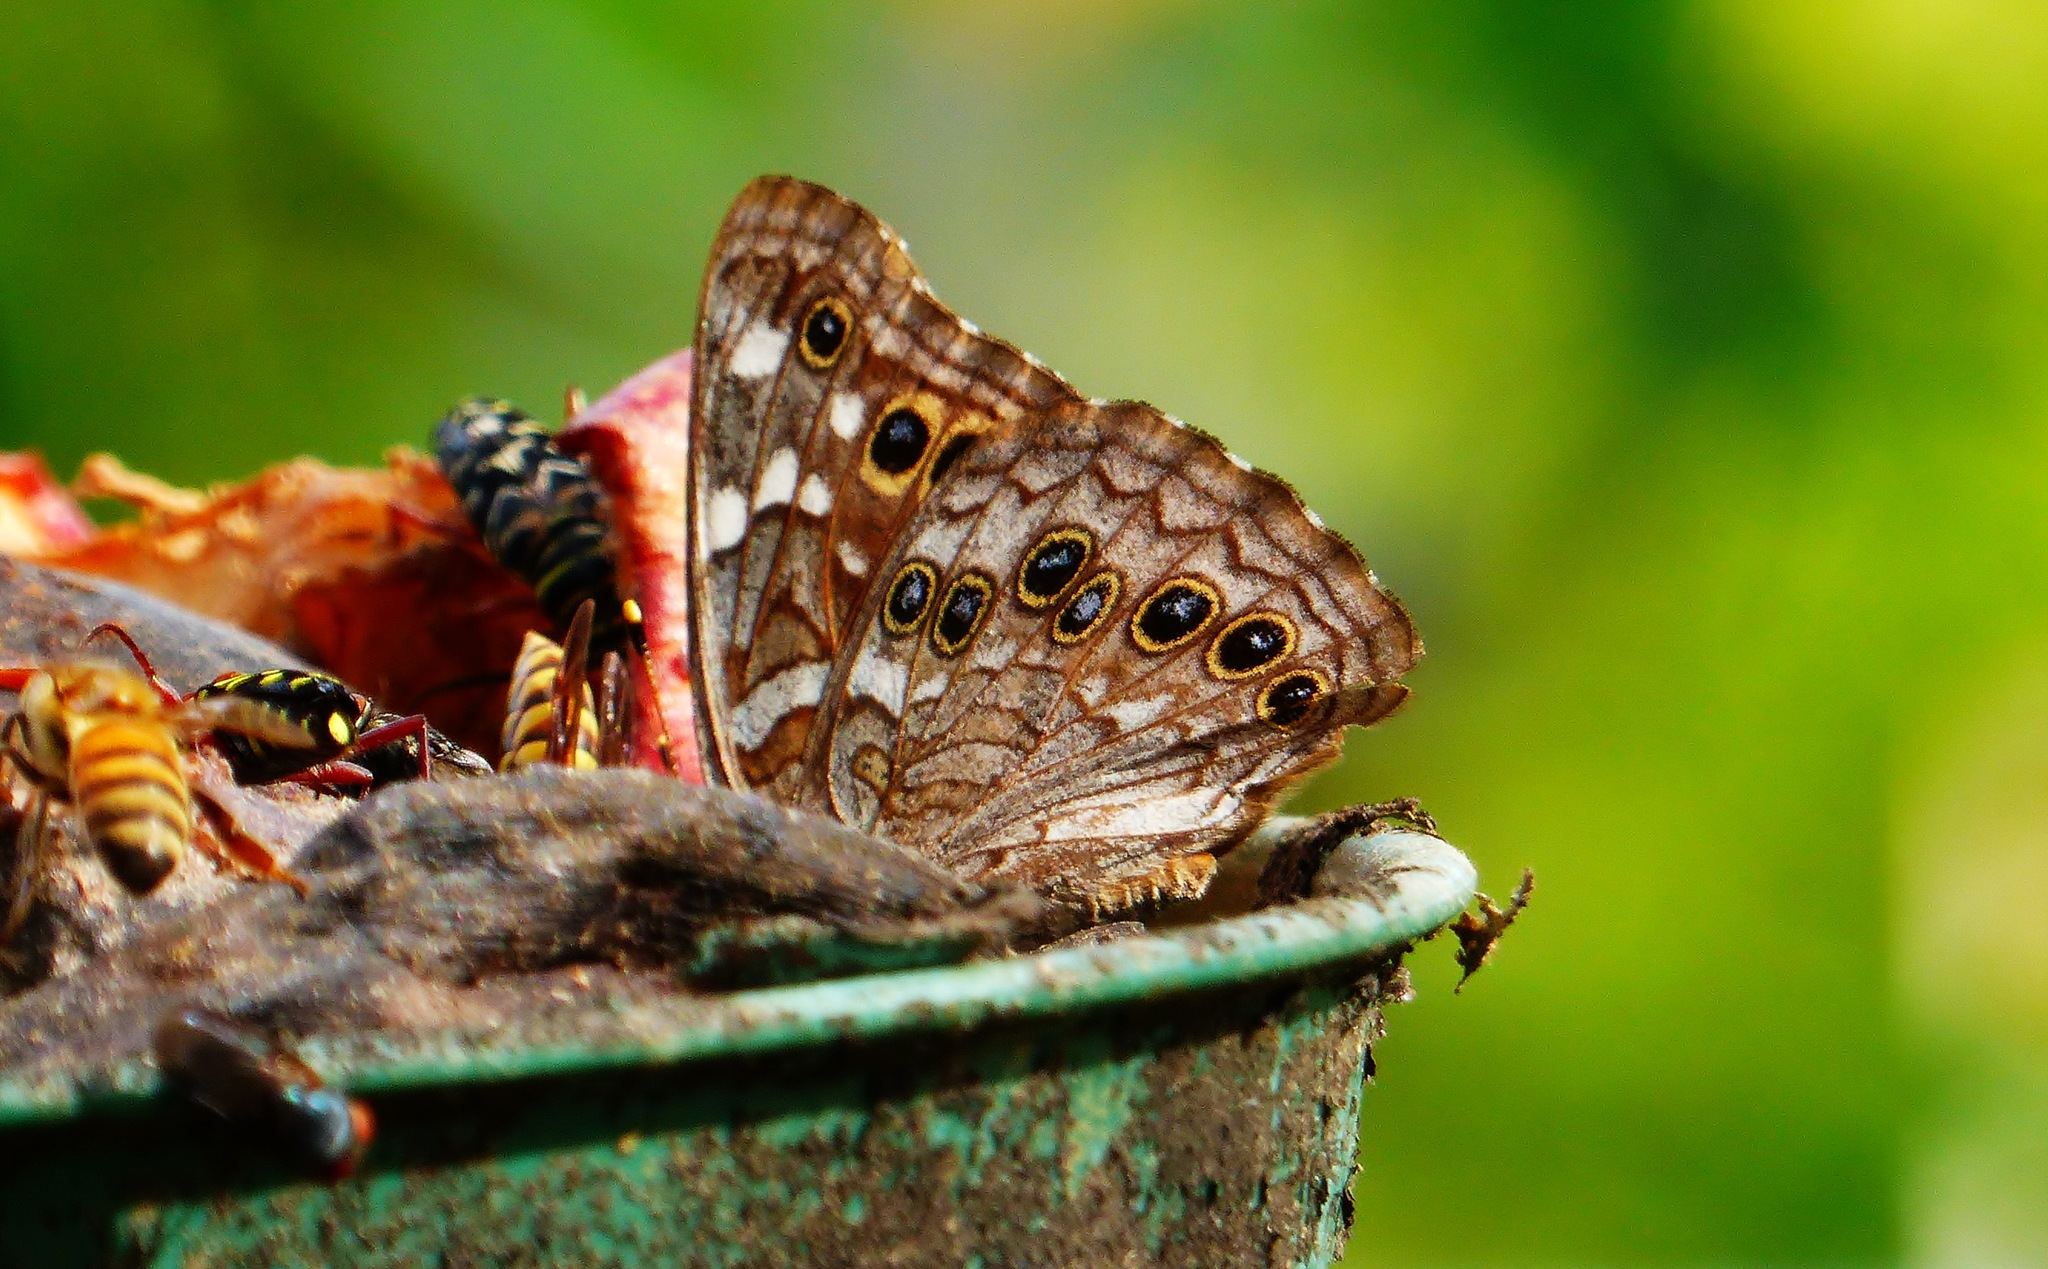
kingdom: Animalia
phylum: Arthropoda
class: Insecta
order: Lepidoptera
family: Nymphalidae
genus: Asterocampa
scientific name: Asterocampa leilia
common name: Empress leilia
